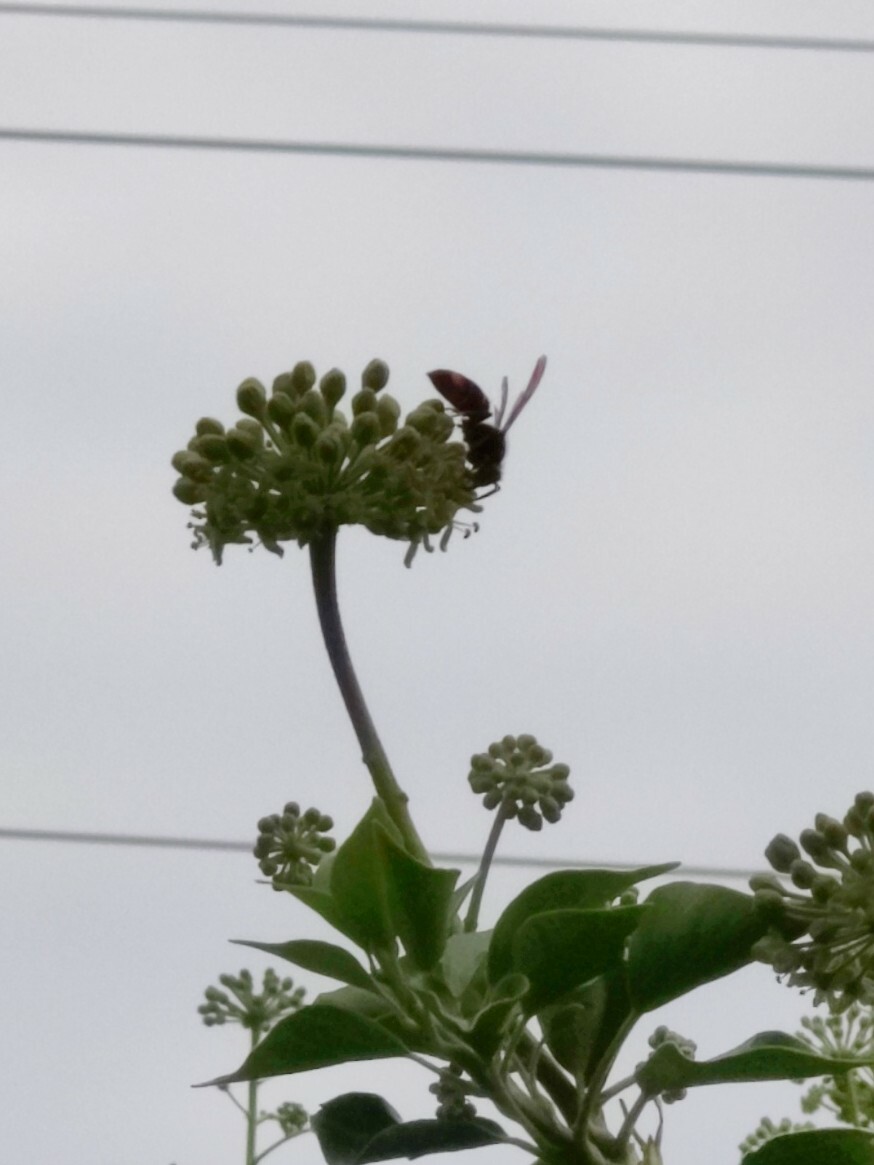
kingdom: Animalia
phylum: Arthropoda
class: Insecta
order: Hymenoptera
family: Vespidae
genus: Vespa
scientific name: Vespa velutina
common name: Asian hornet
